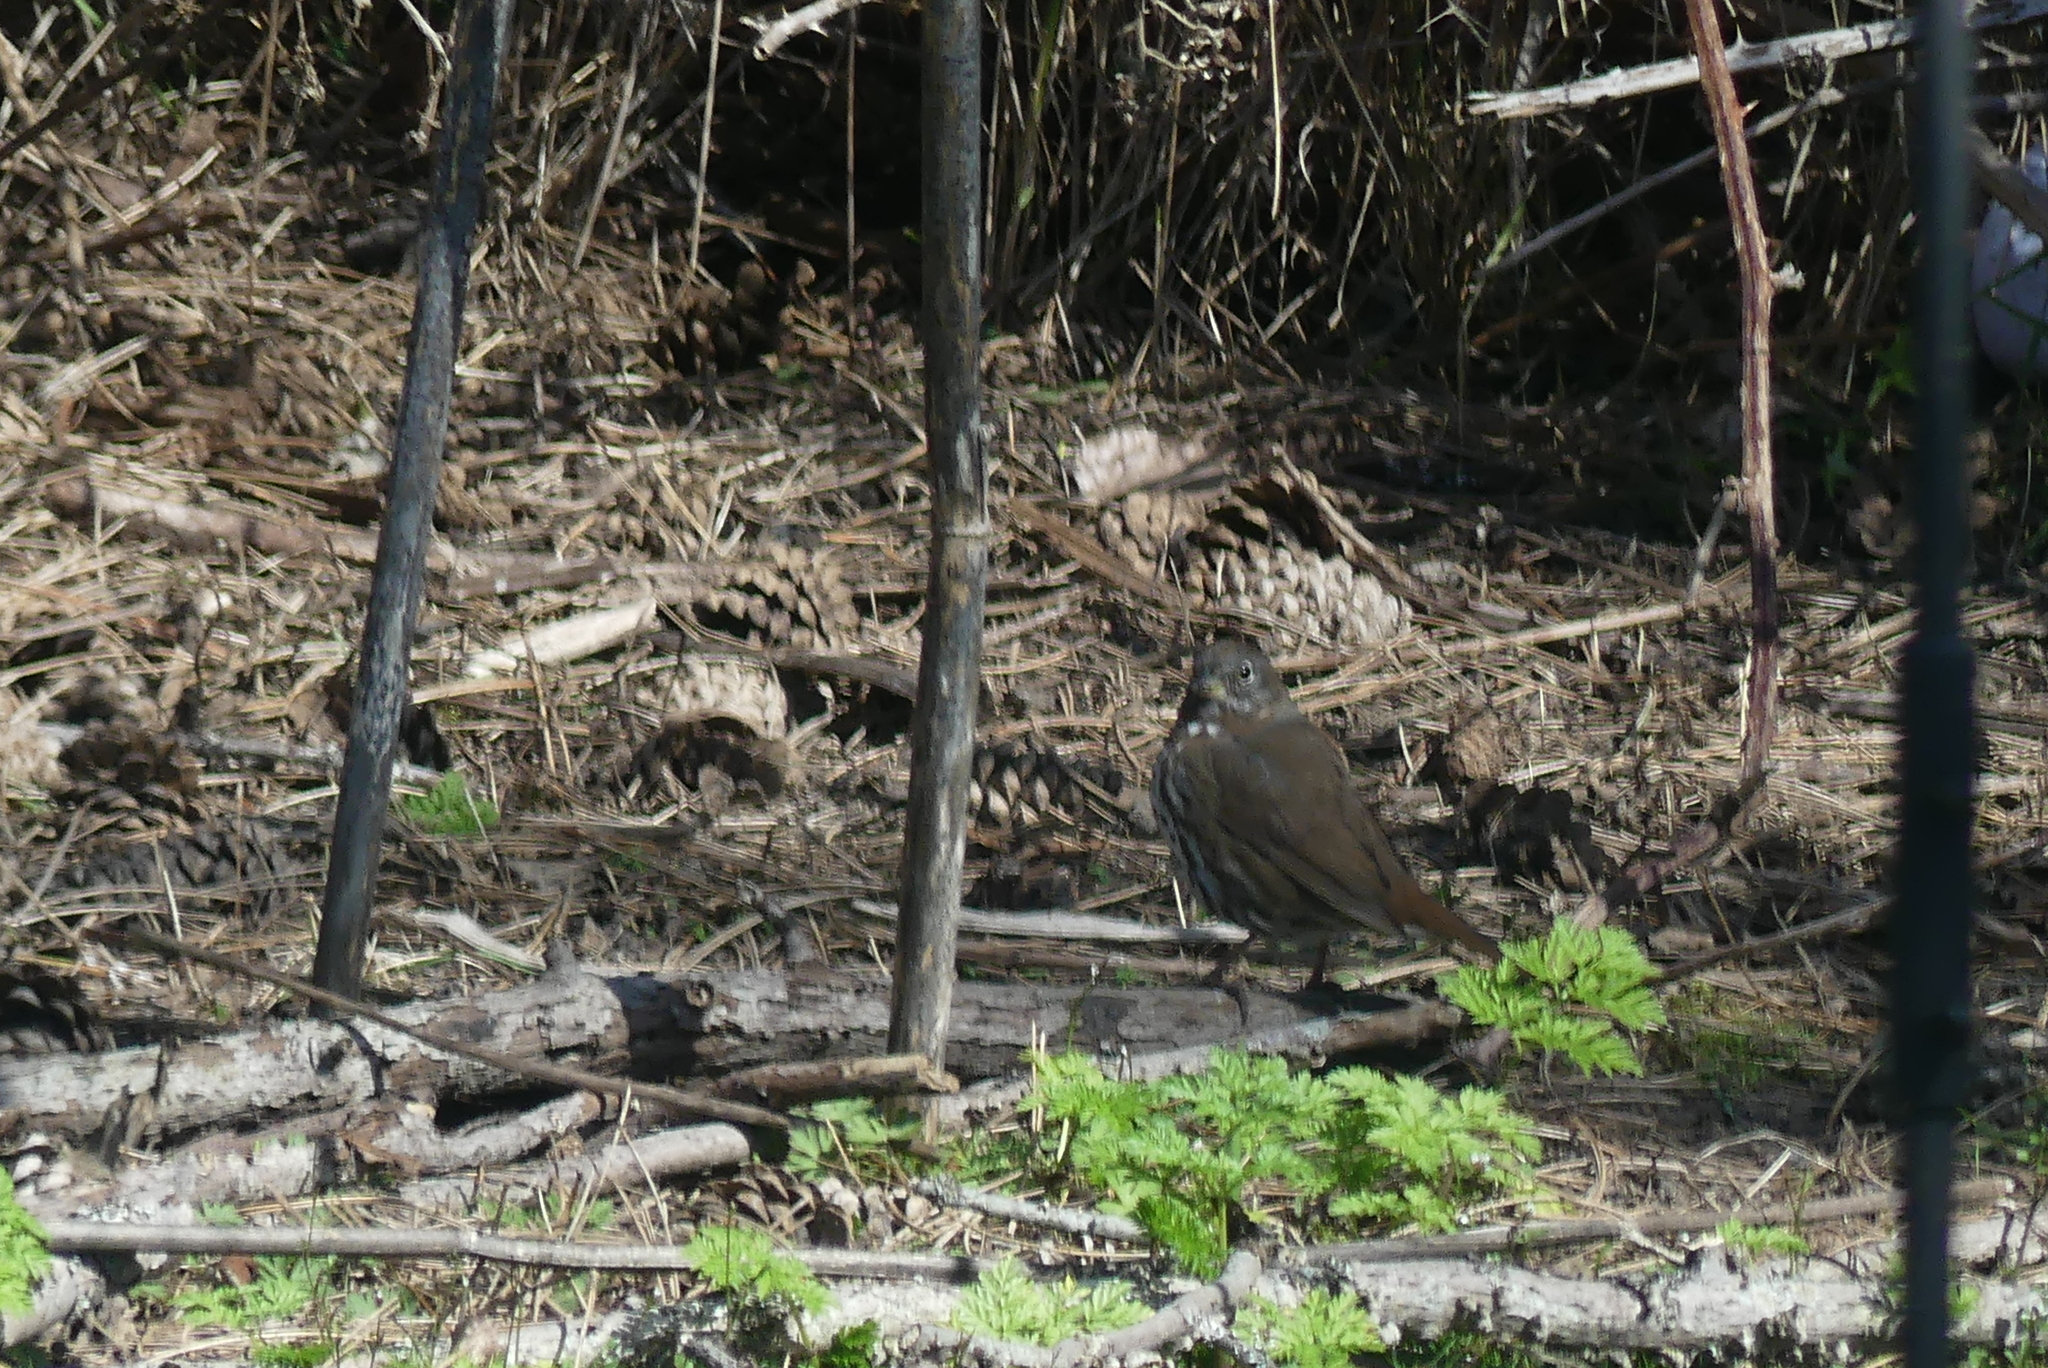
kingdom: Animalia
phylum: Chordata
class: Aves
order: Passeriformes
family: Passerellidae
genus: Passerella
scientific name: Passerella iliaca
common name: Fox sparrow
